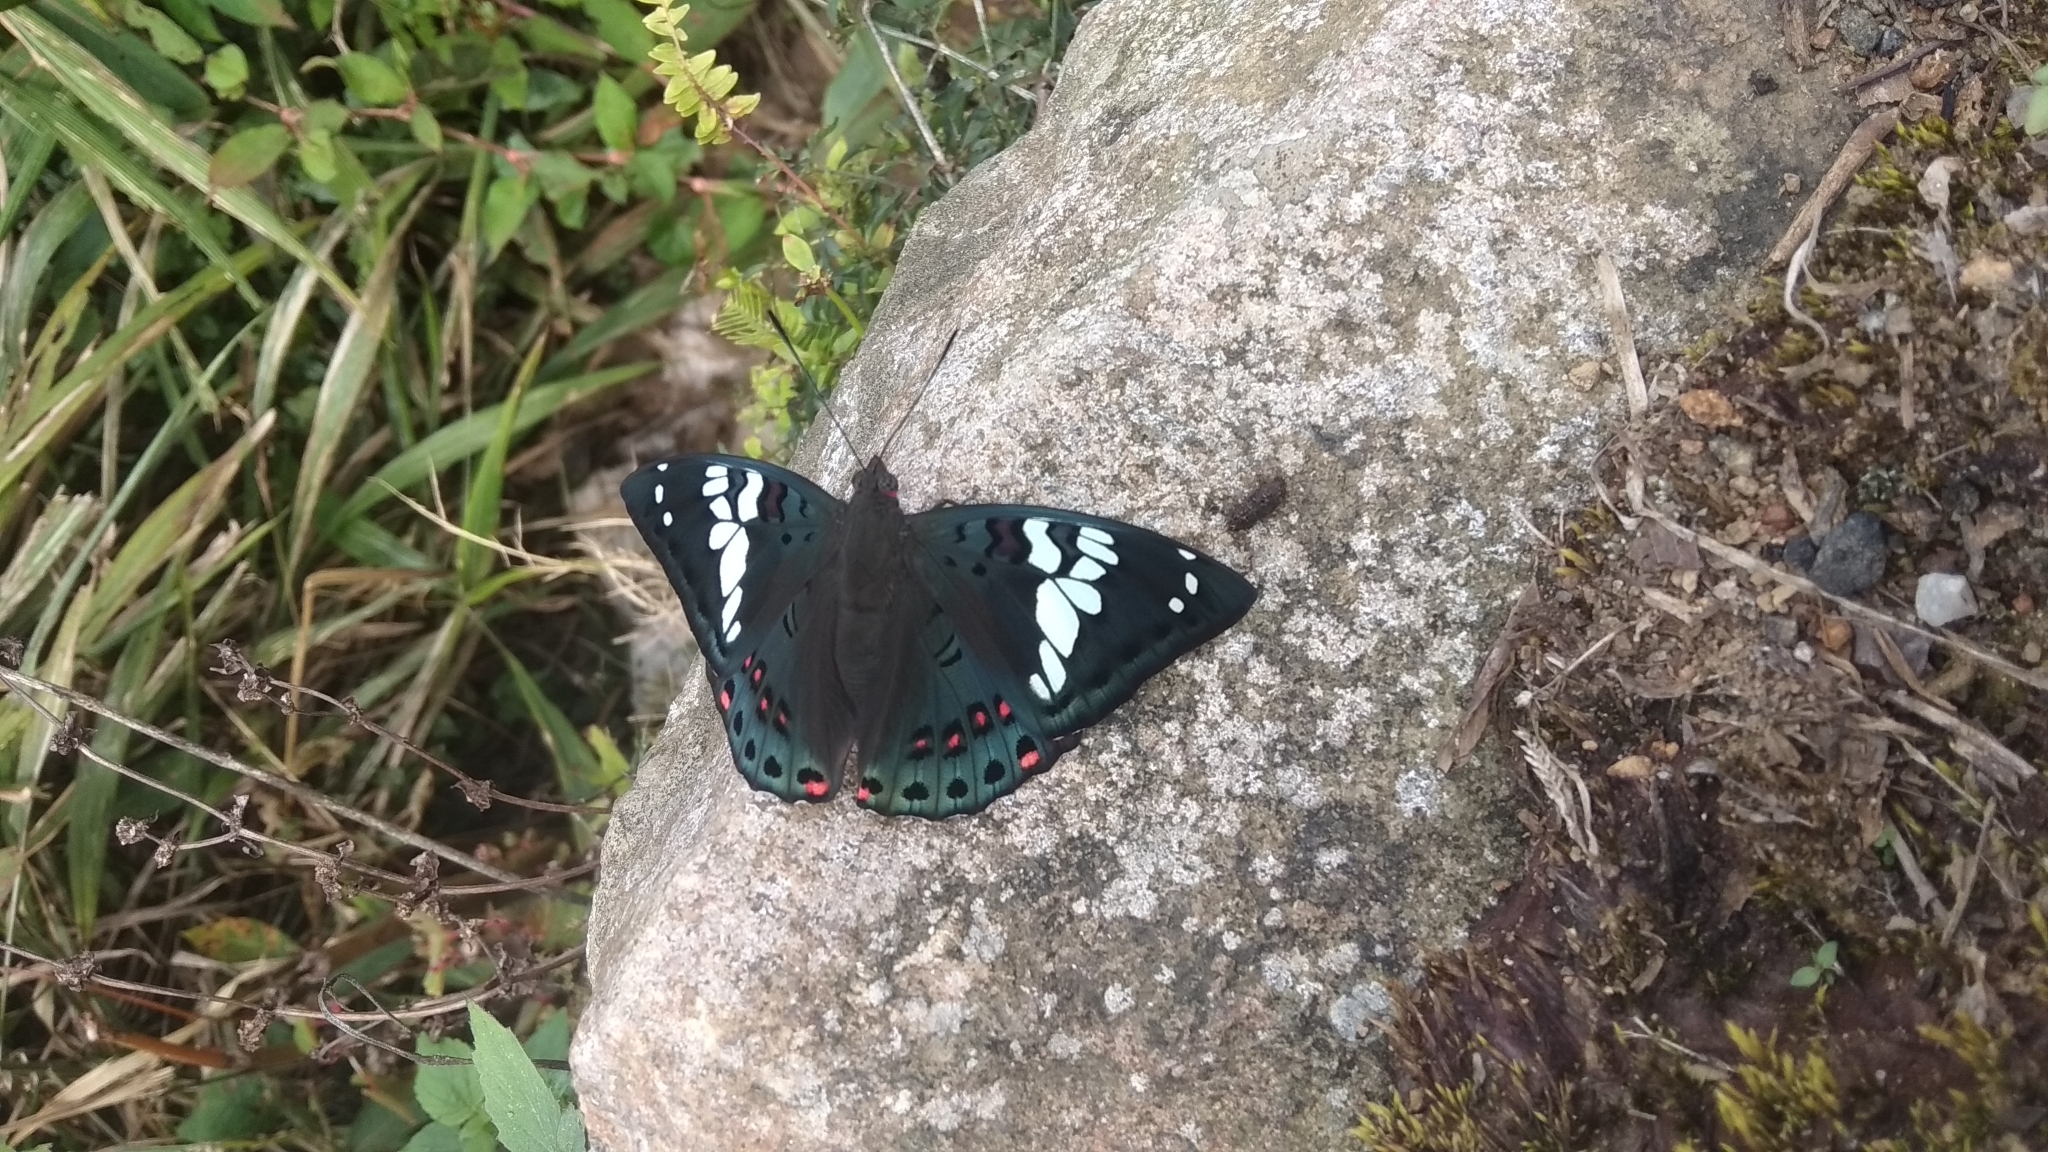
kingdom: Animalia
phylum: Arthropoda
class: Insecta
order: Lepidoptera
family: Nymphalidae
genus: Euthalia
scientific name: Euthalia lubentina
